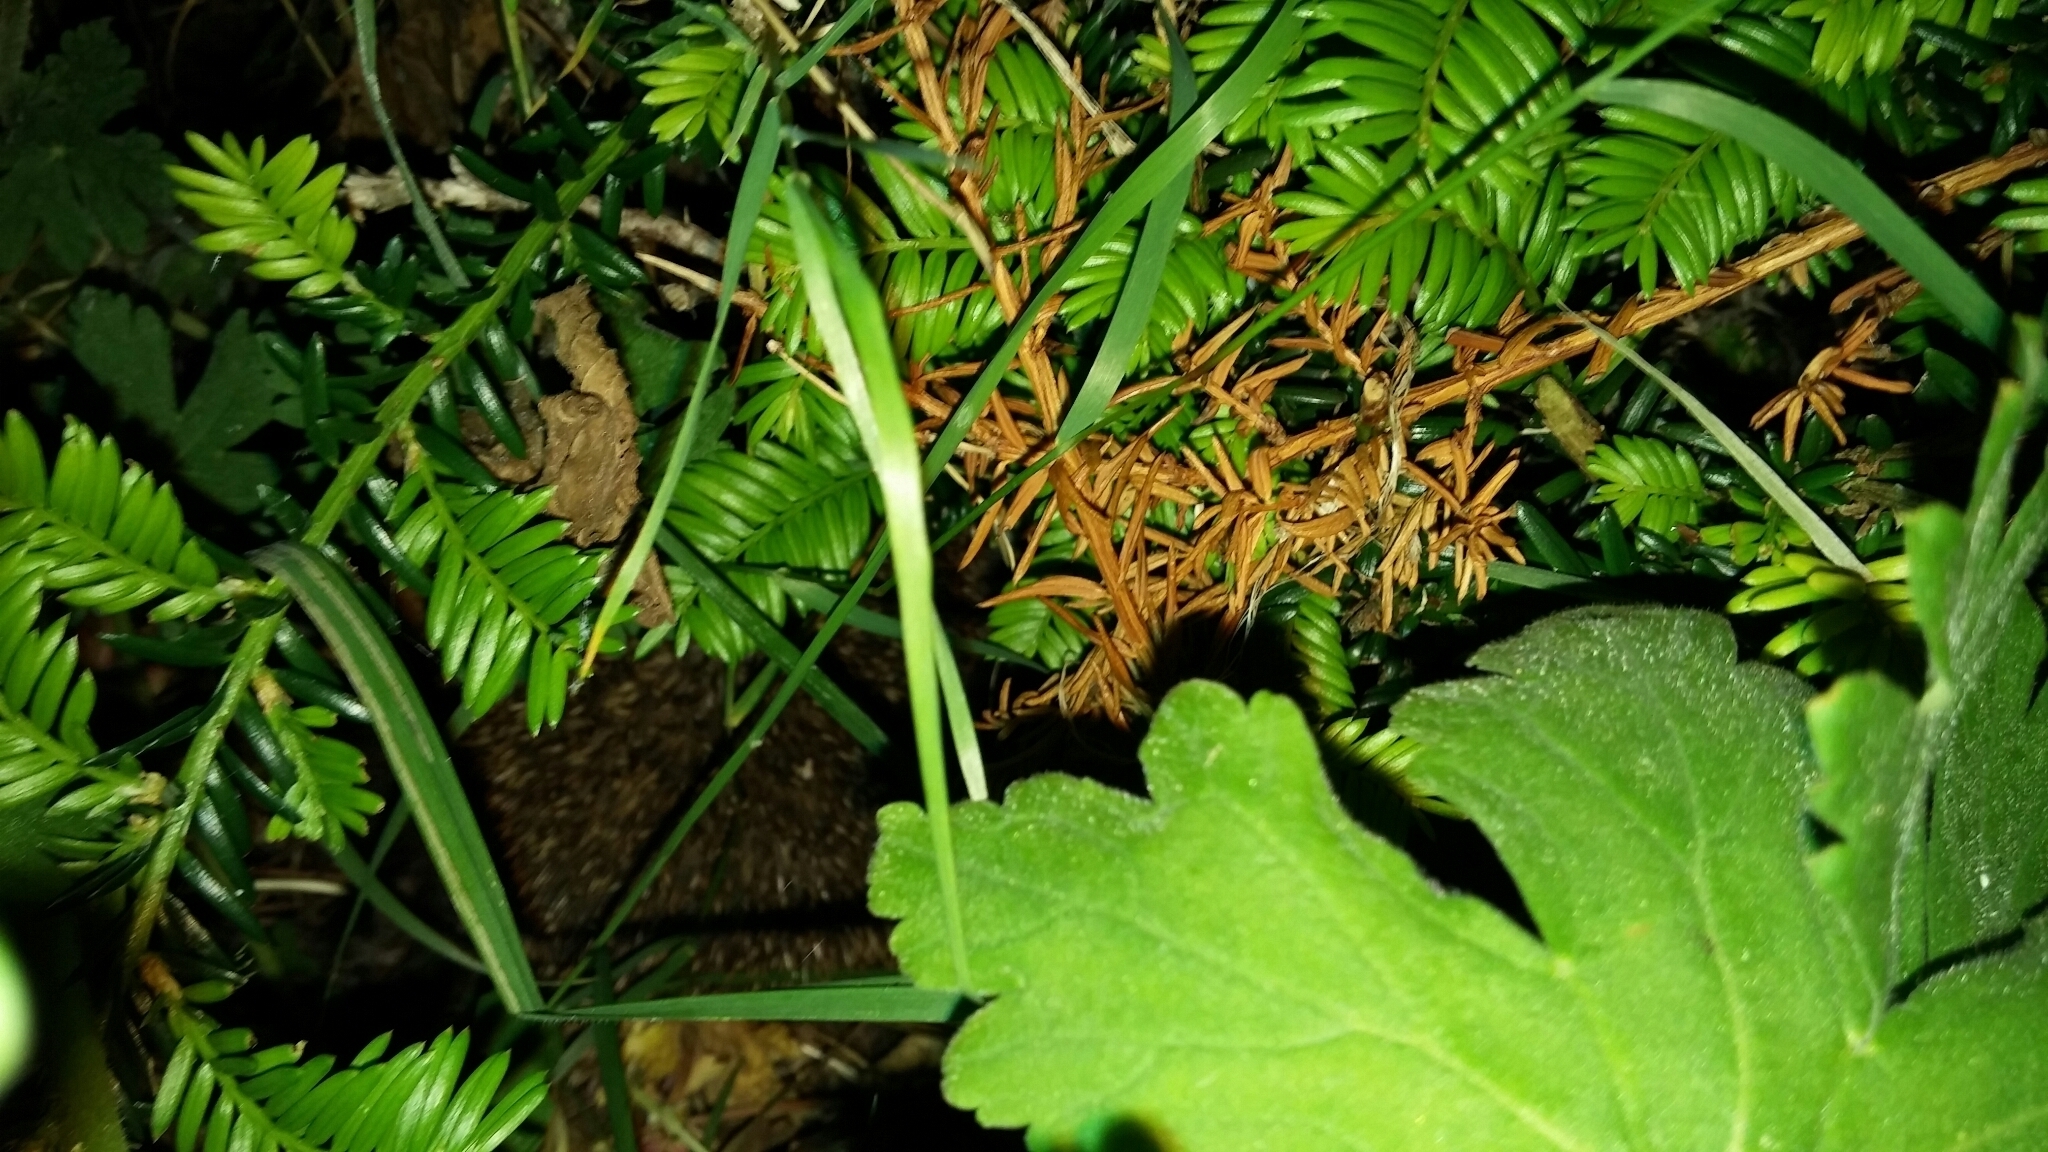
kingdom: Animalia
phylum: Chordata
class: Mammalia
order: Erinaceomorpha
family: Erinaceidae
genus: Erinaceus
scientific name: Erinaceus europaeus
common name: West european hedgehog
